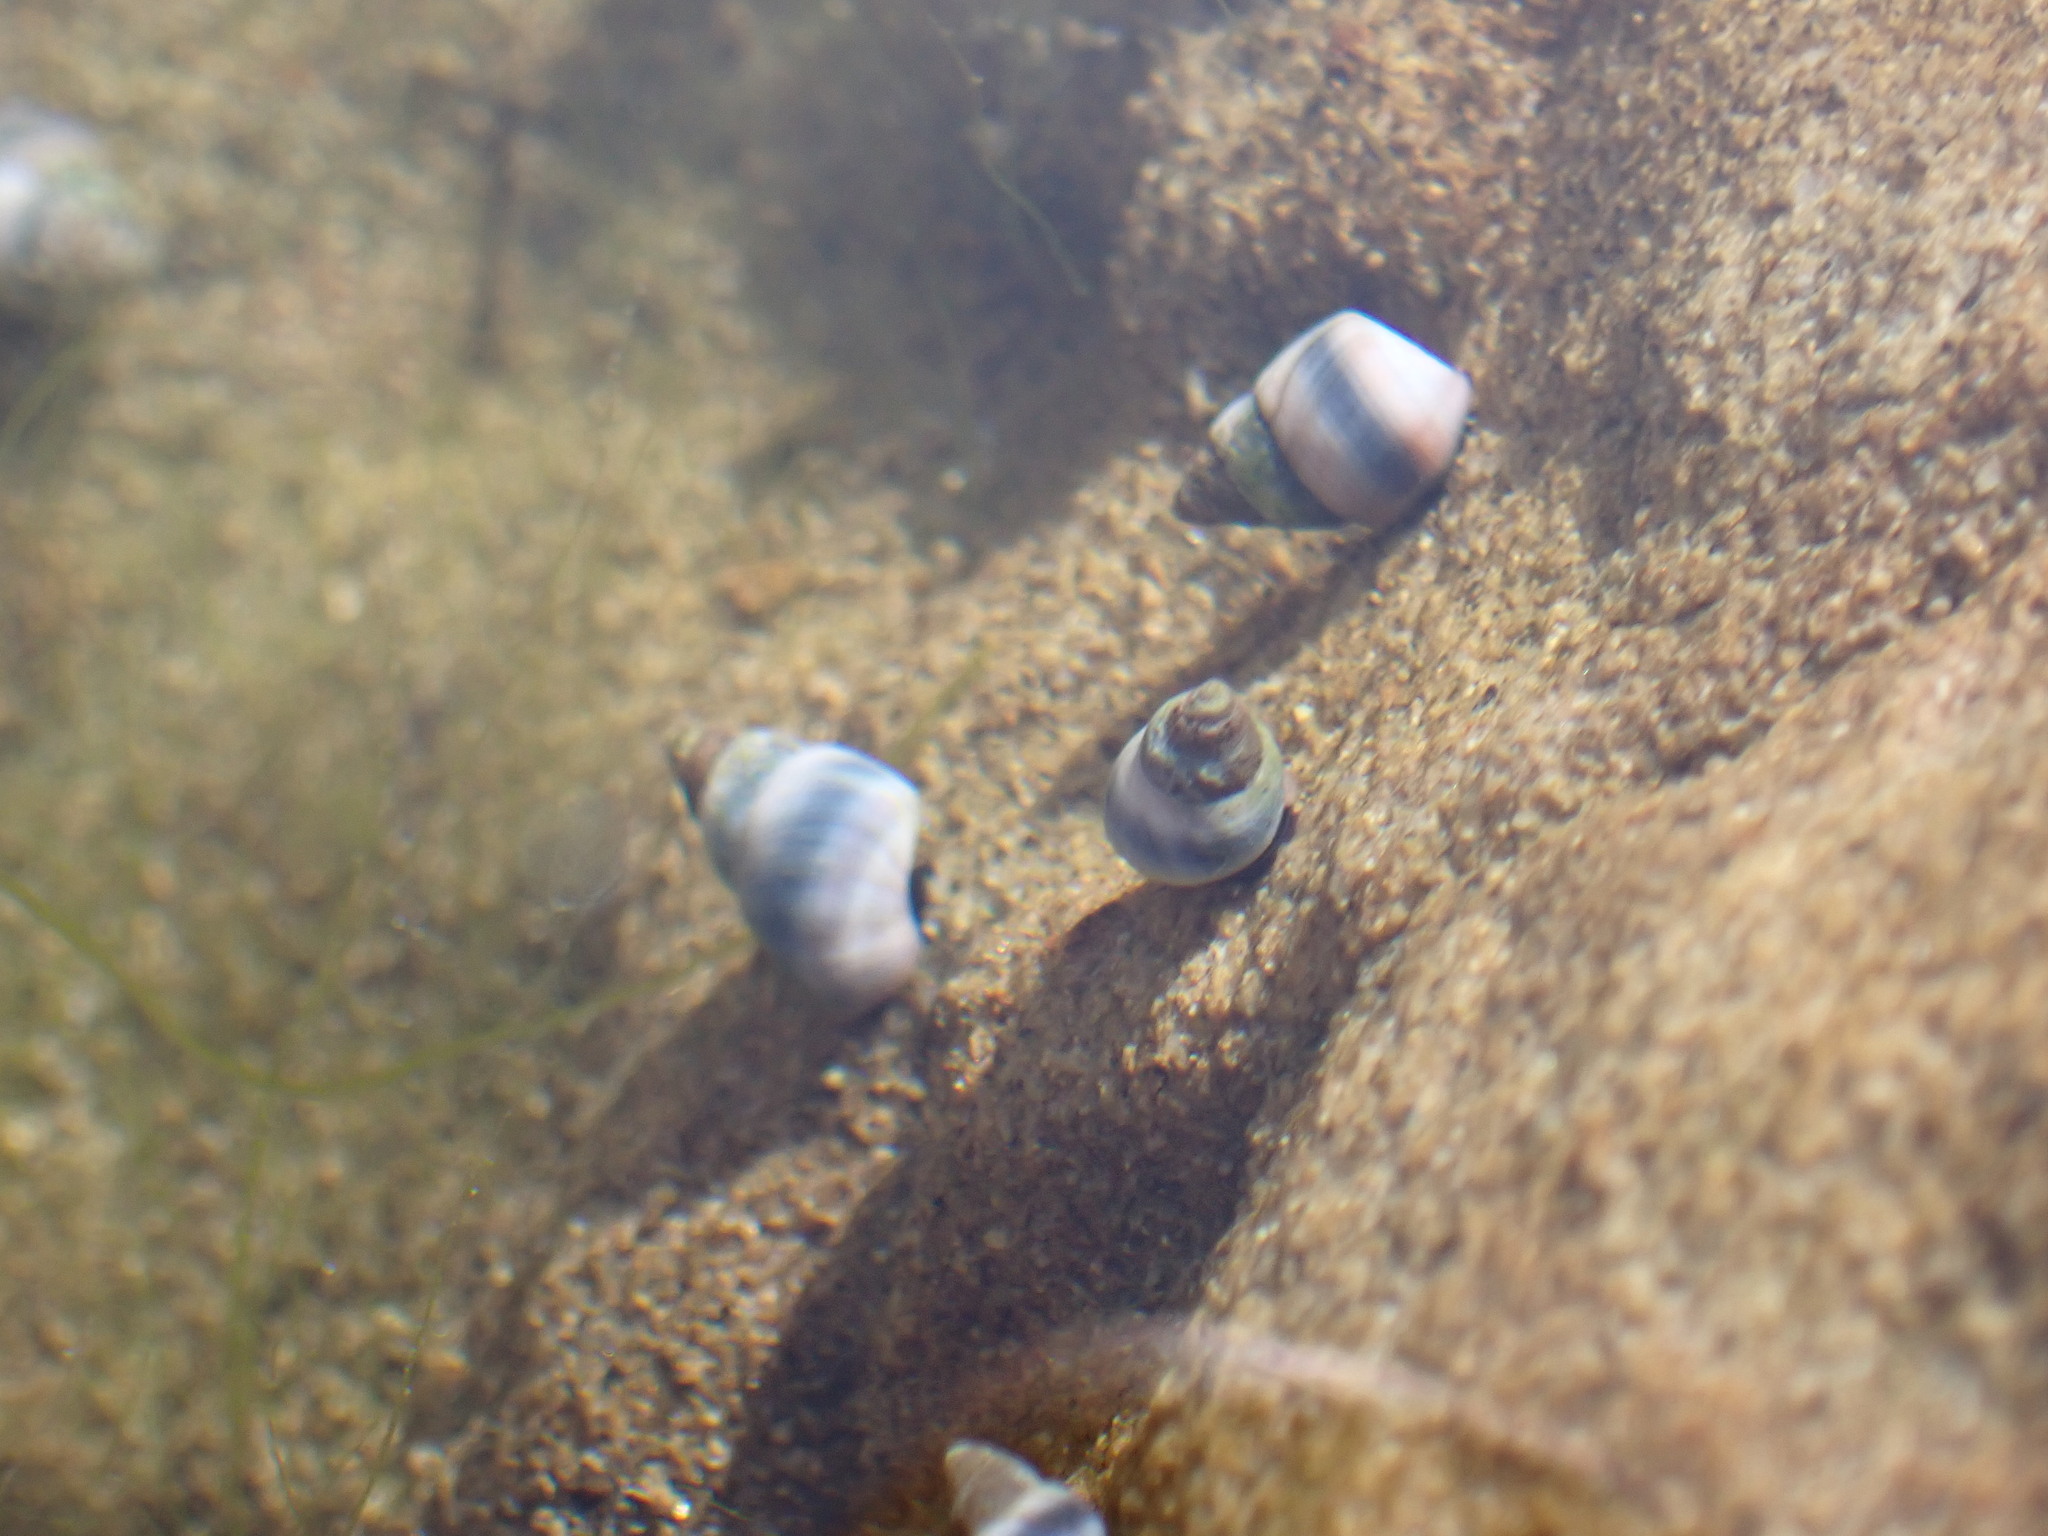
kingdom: Animalia
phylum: Mollusca
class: Gastropoda
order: Littorinimorpha
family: Littorinidae
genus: Austrolittorina
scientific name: Austrolittorina antipodum
